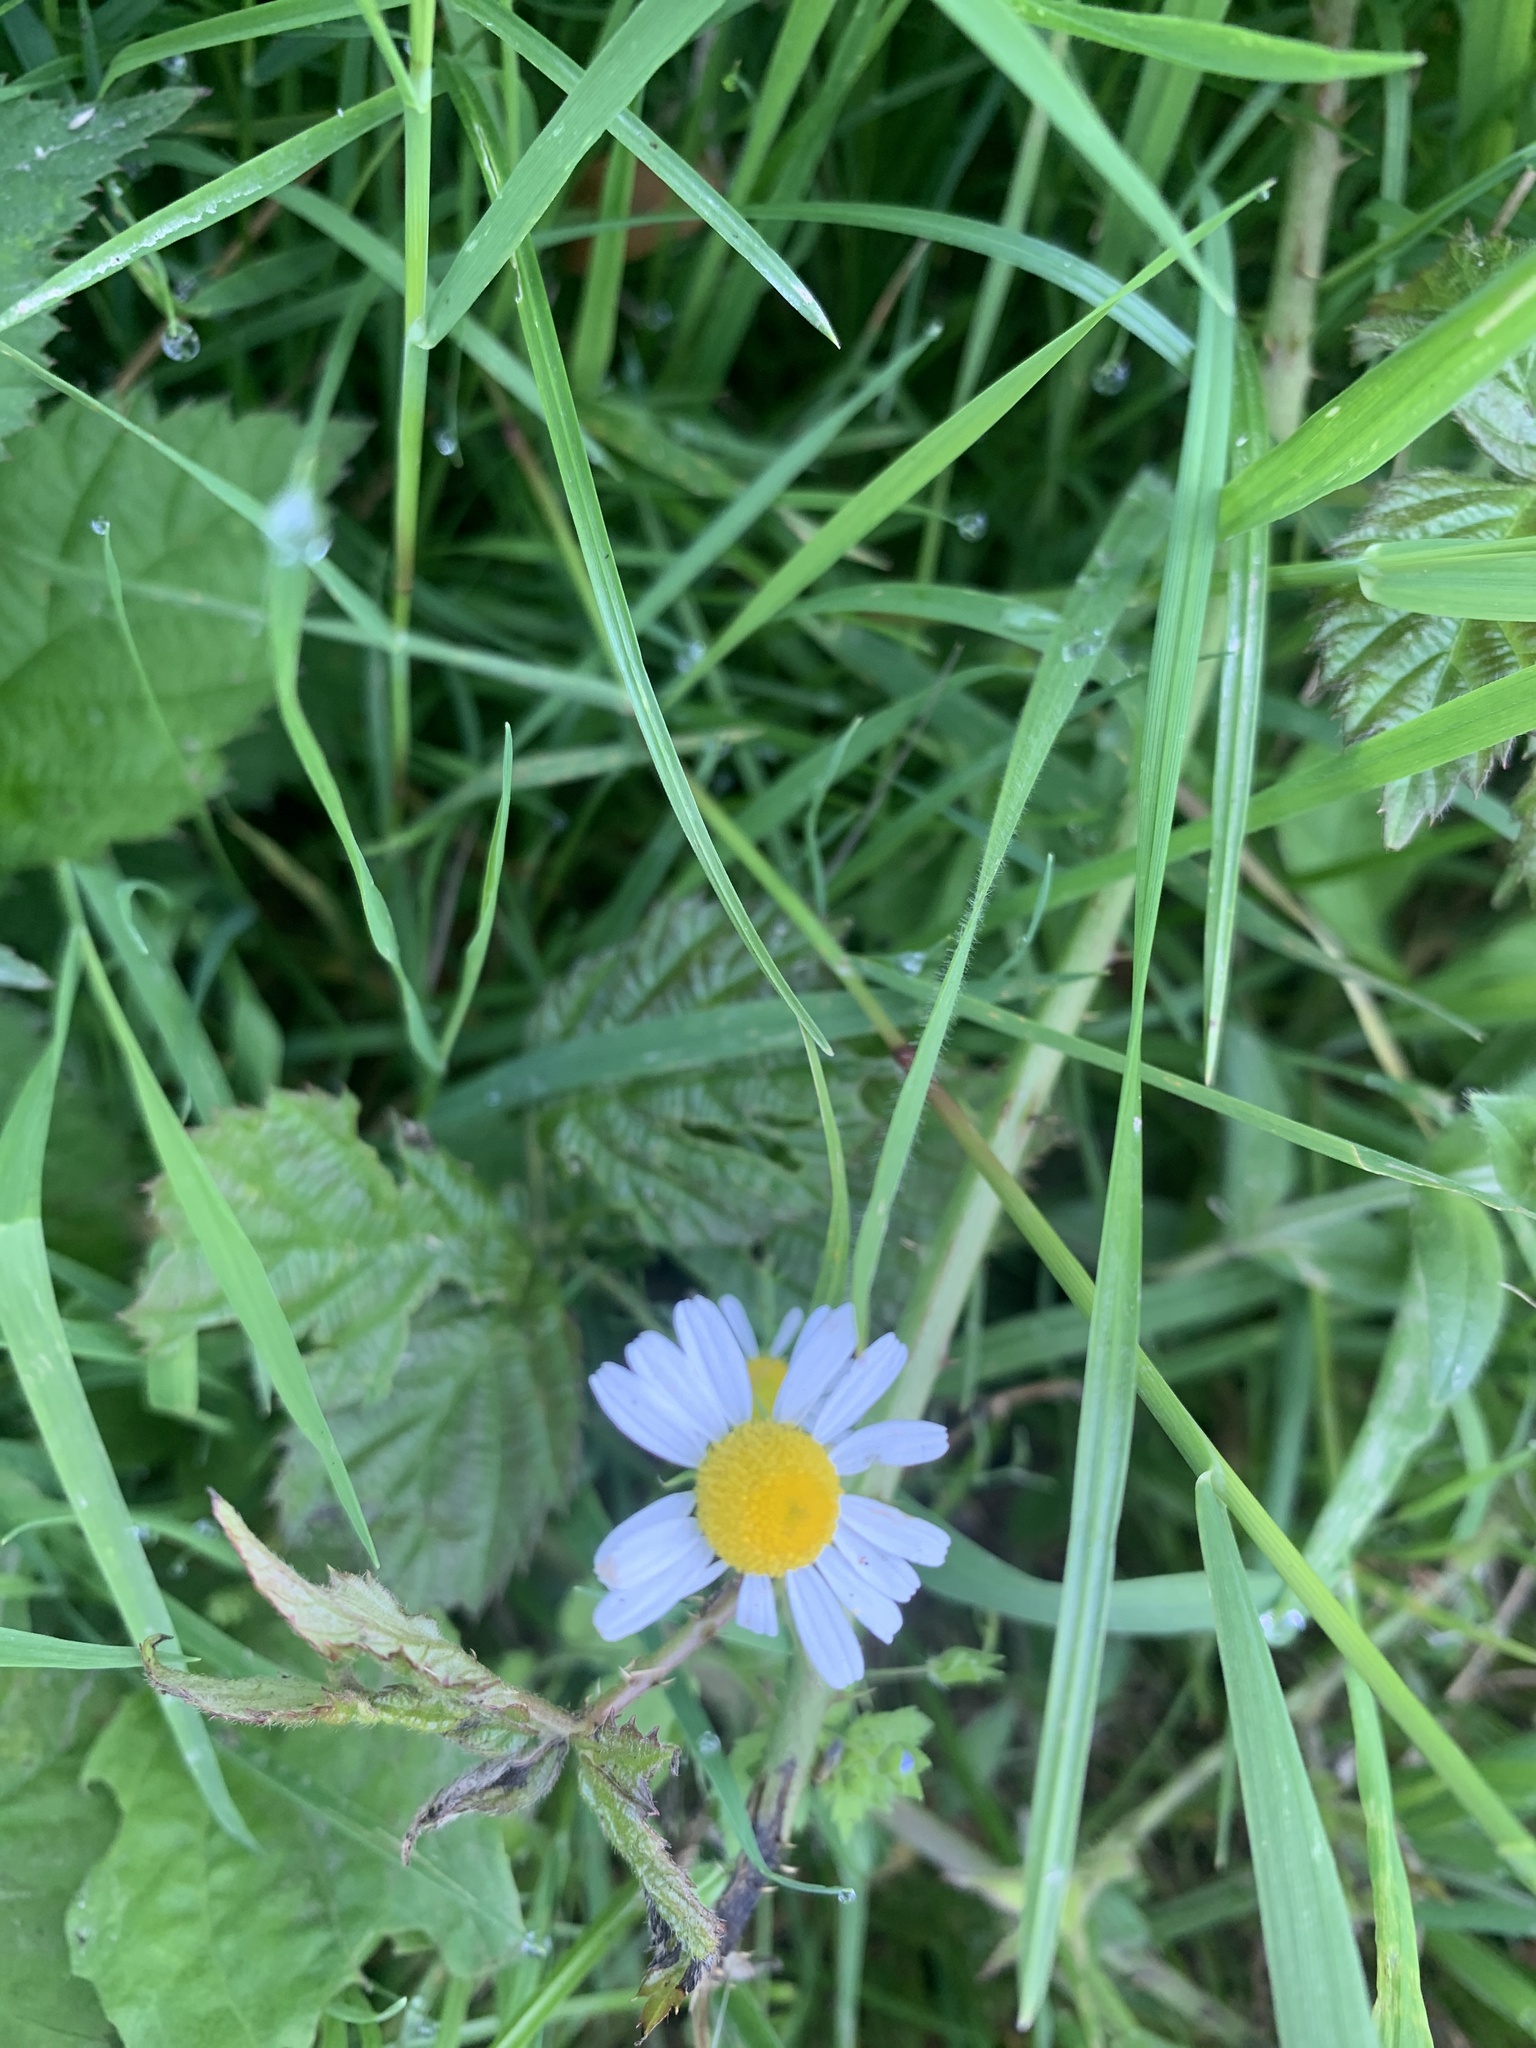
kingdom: Plantae
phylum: Tracheophyta
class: Magnoliopsida
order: Asterales
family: Asteraceae
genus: Tripleurospermum
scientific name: Tripleurospermum inodorum
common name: Scentless mayweed
